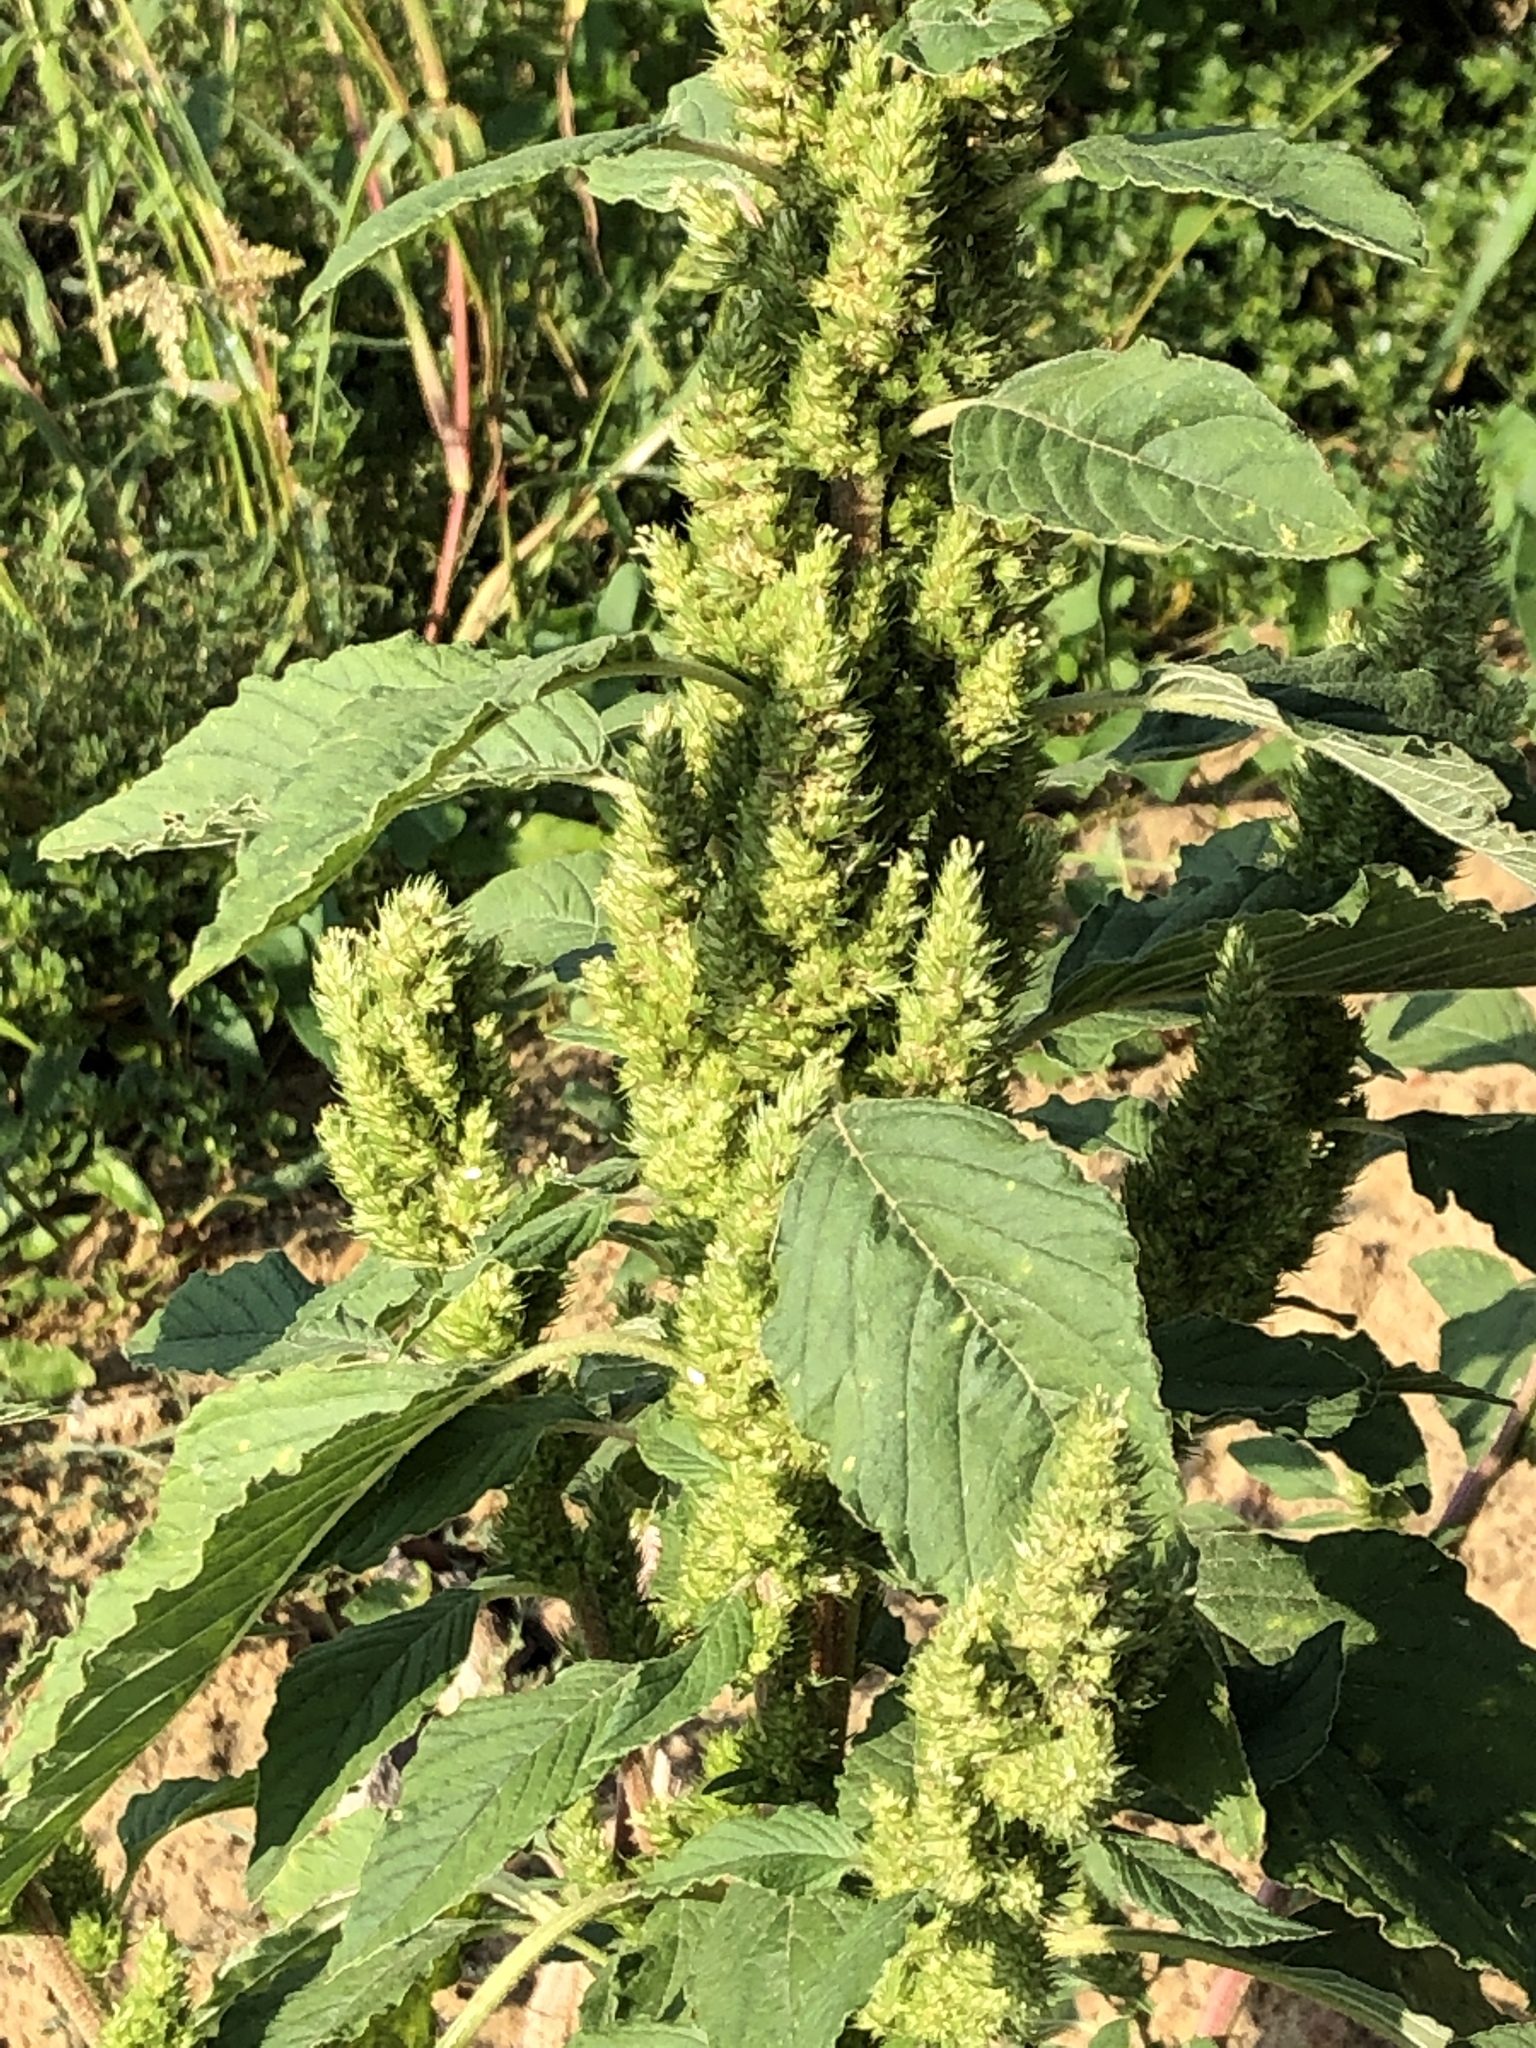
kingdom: Plantae
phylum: Tracheophyta
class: Magnoliopsida
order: Caryophyllales
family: Amaranthaceae
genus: Amaranthus
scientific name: Amaranthus retroflexus
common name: Redroot amaranth
